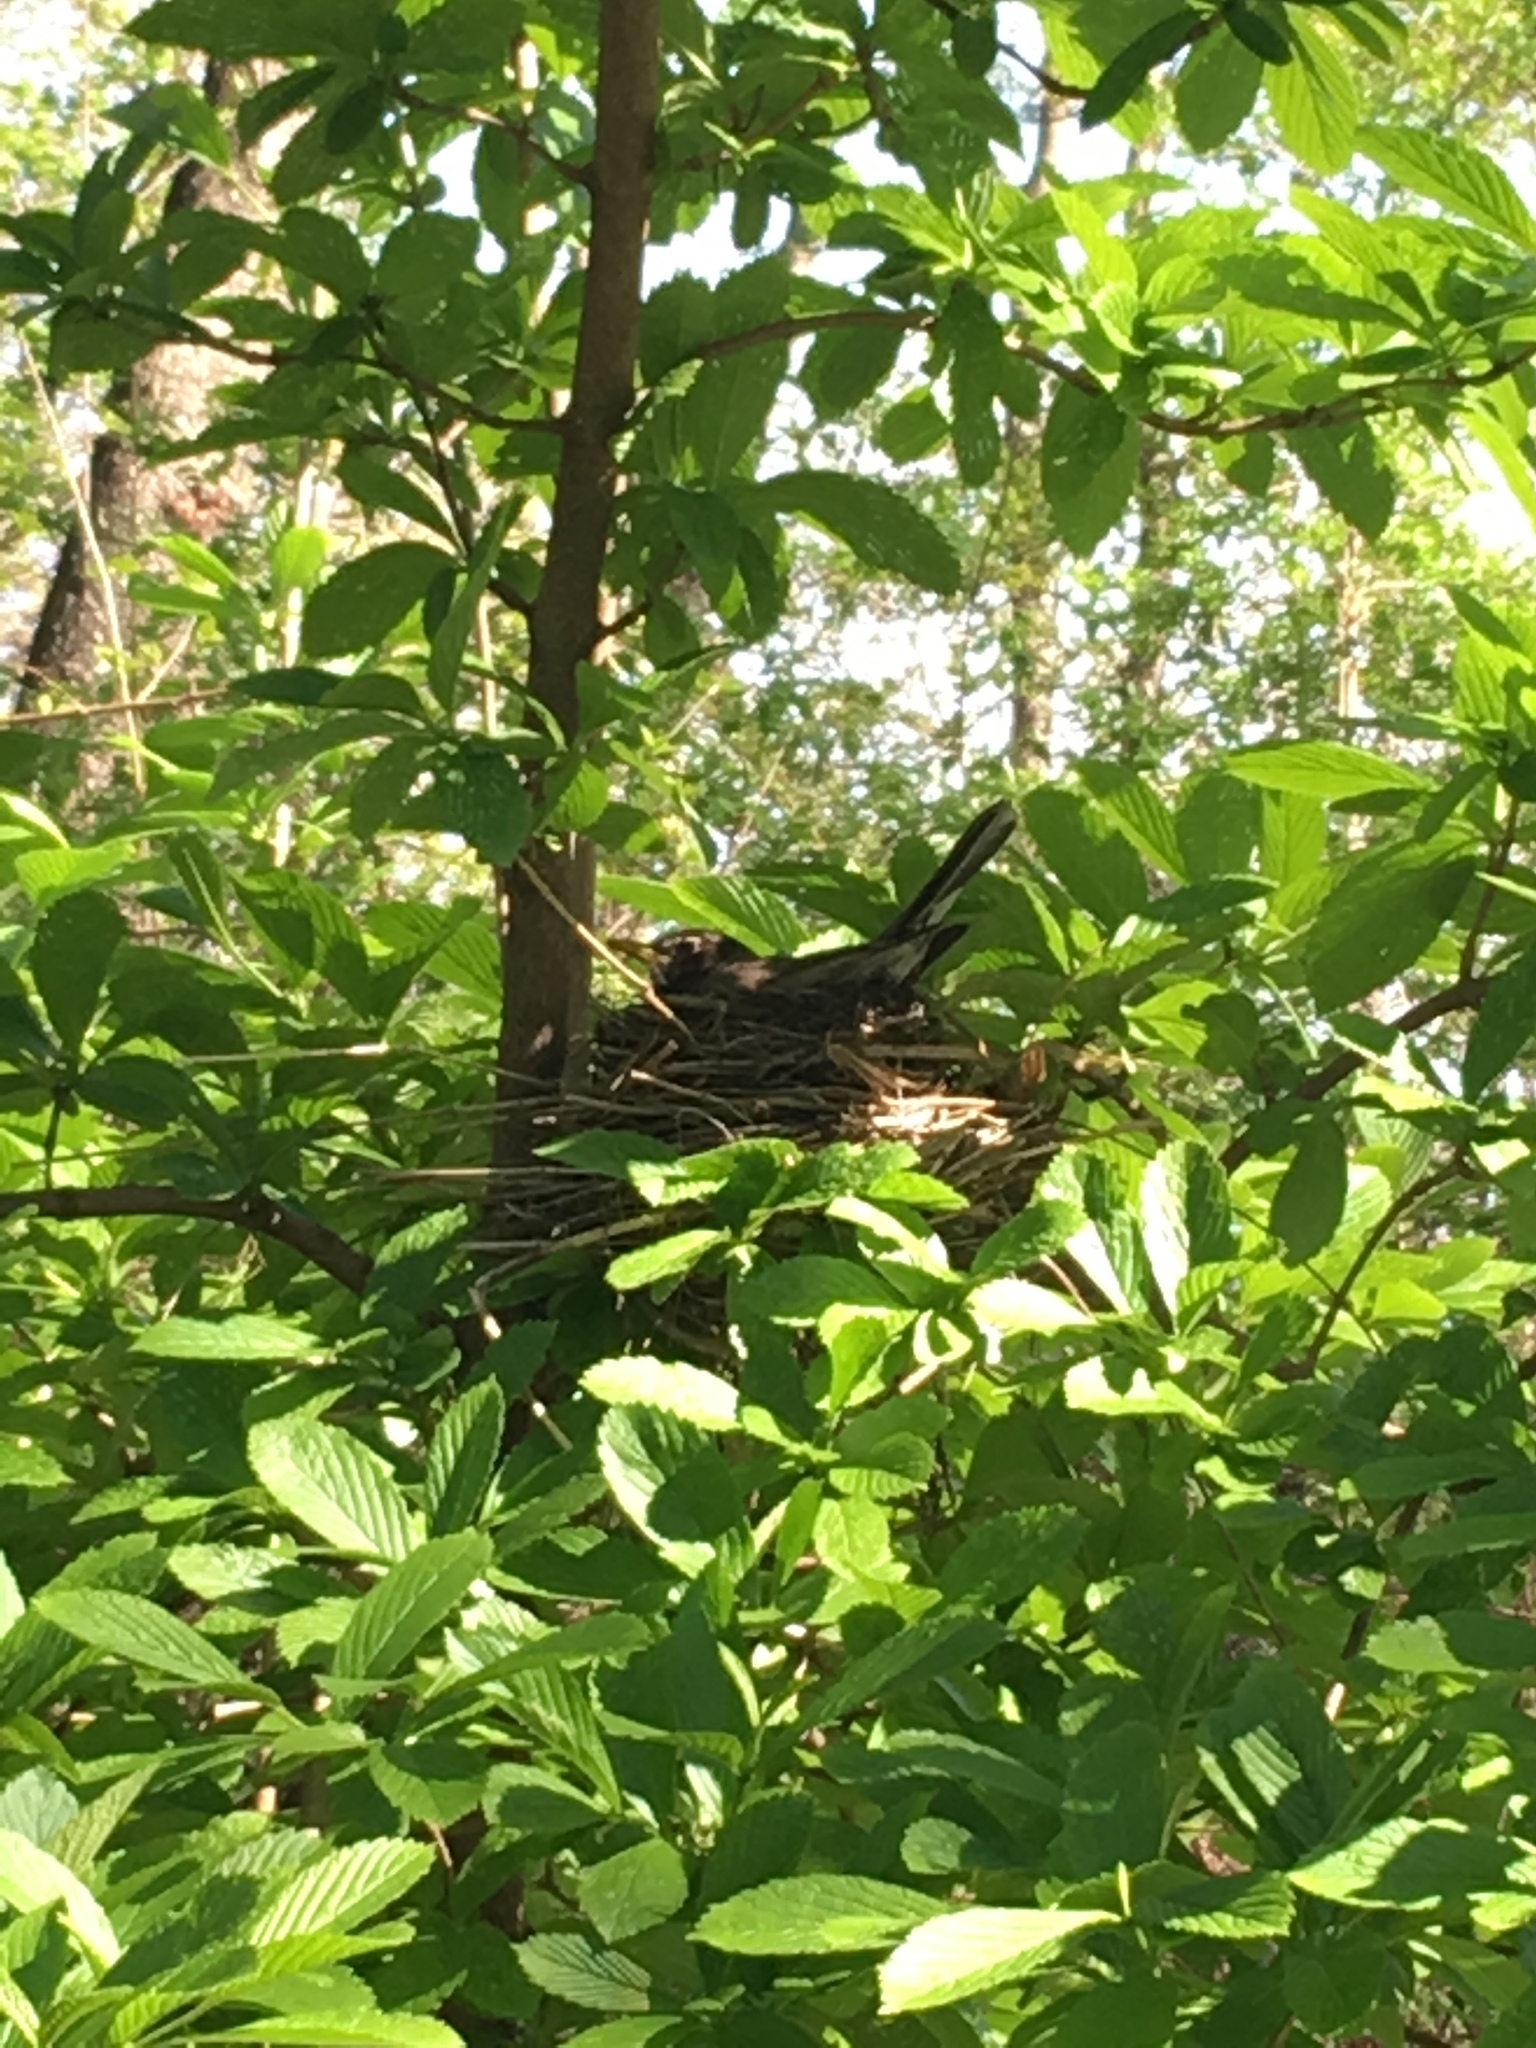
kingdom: Animalia
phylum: Chordata
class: Aves
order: Passeriformes
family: Turdidae
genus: Turdus
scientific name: Turdus migratorius
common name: American robin
